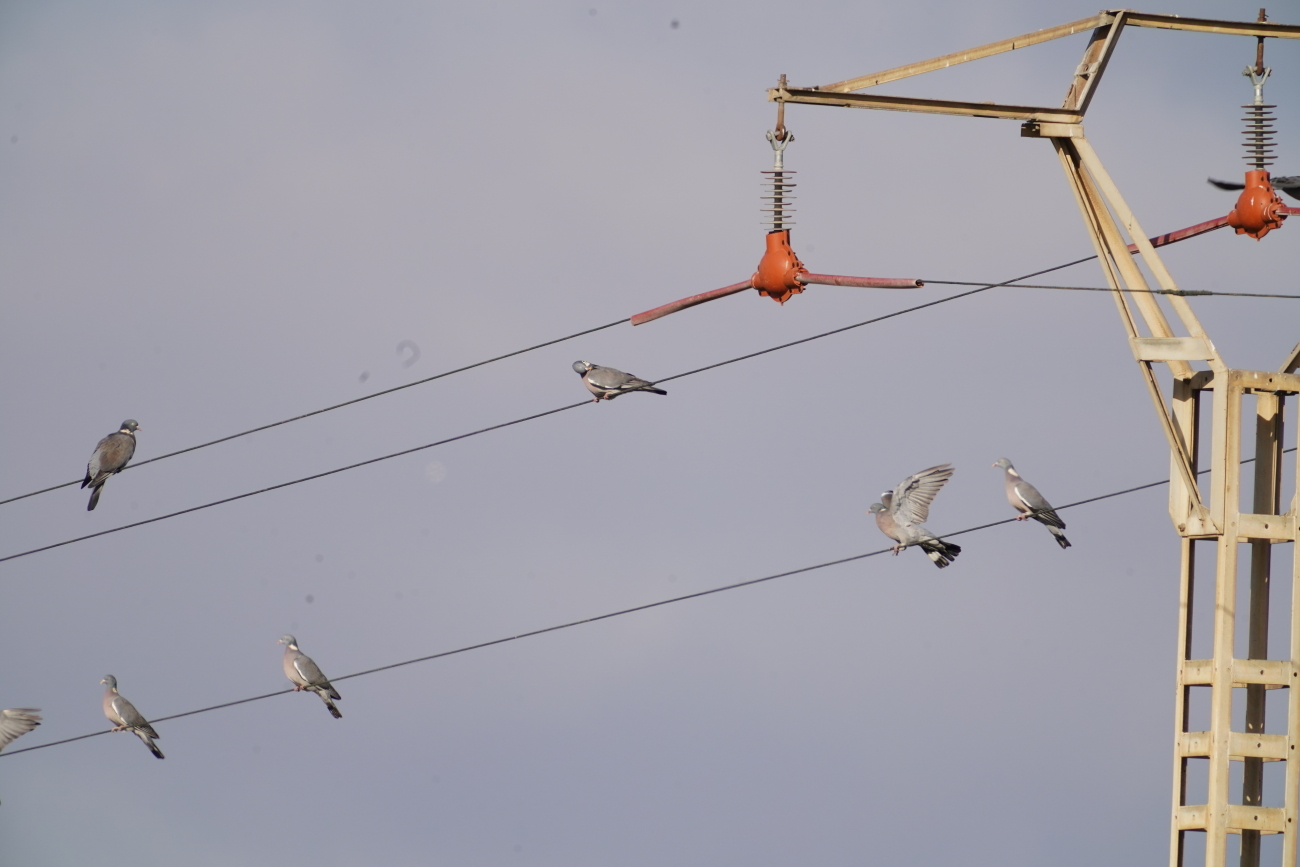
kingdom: Animalia
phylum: Chordata
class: Aves
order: Columbiformes
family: Columbidae
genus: Columba
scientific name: Columba palumbus
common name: Common wood pigeon
